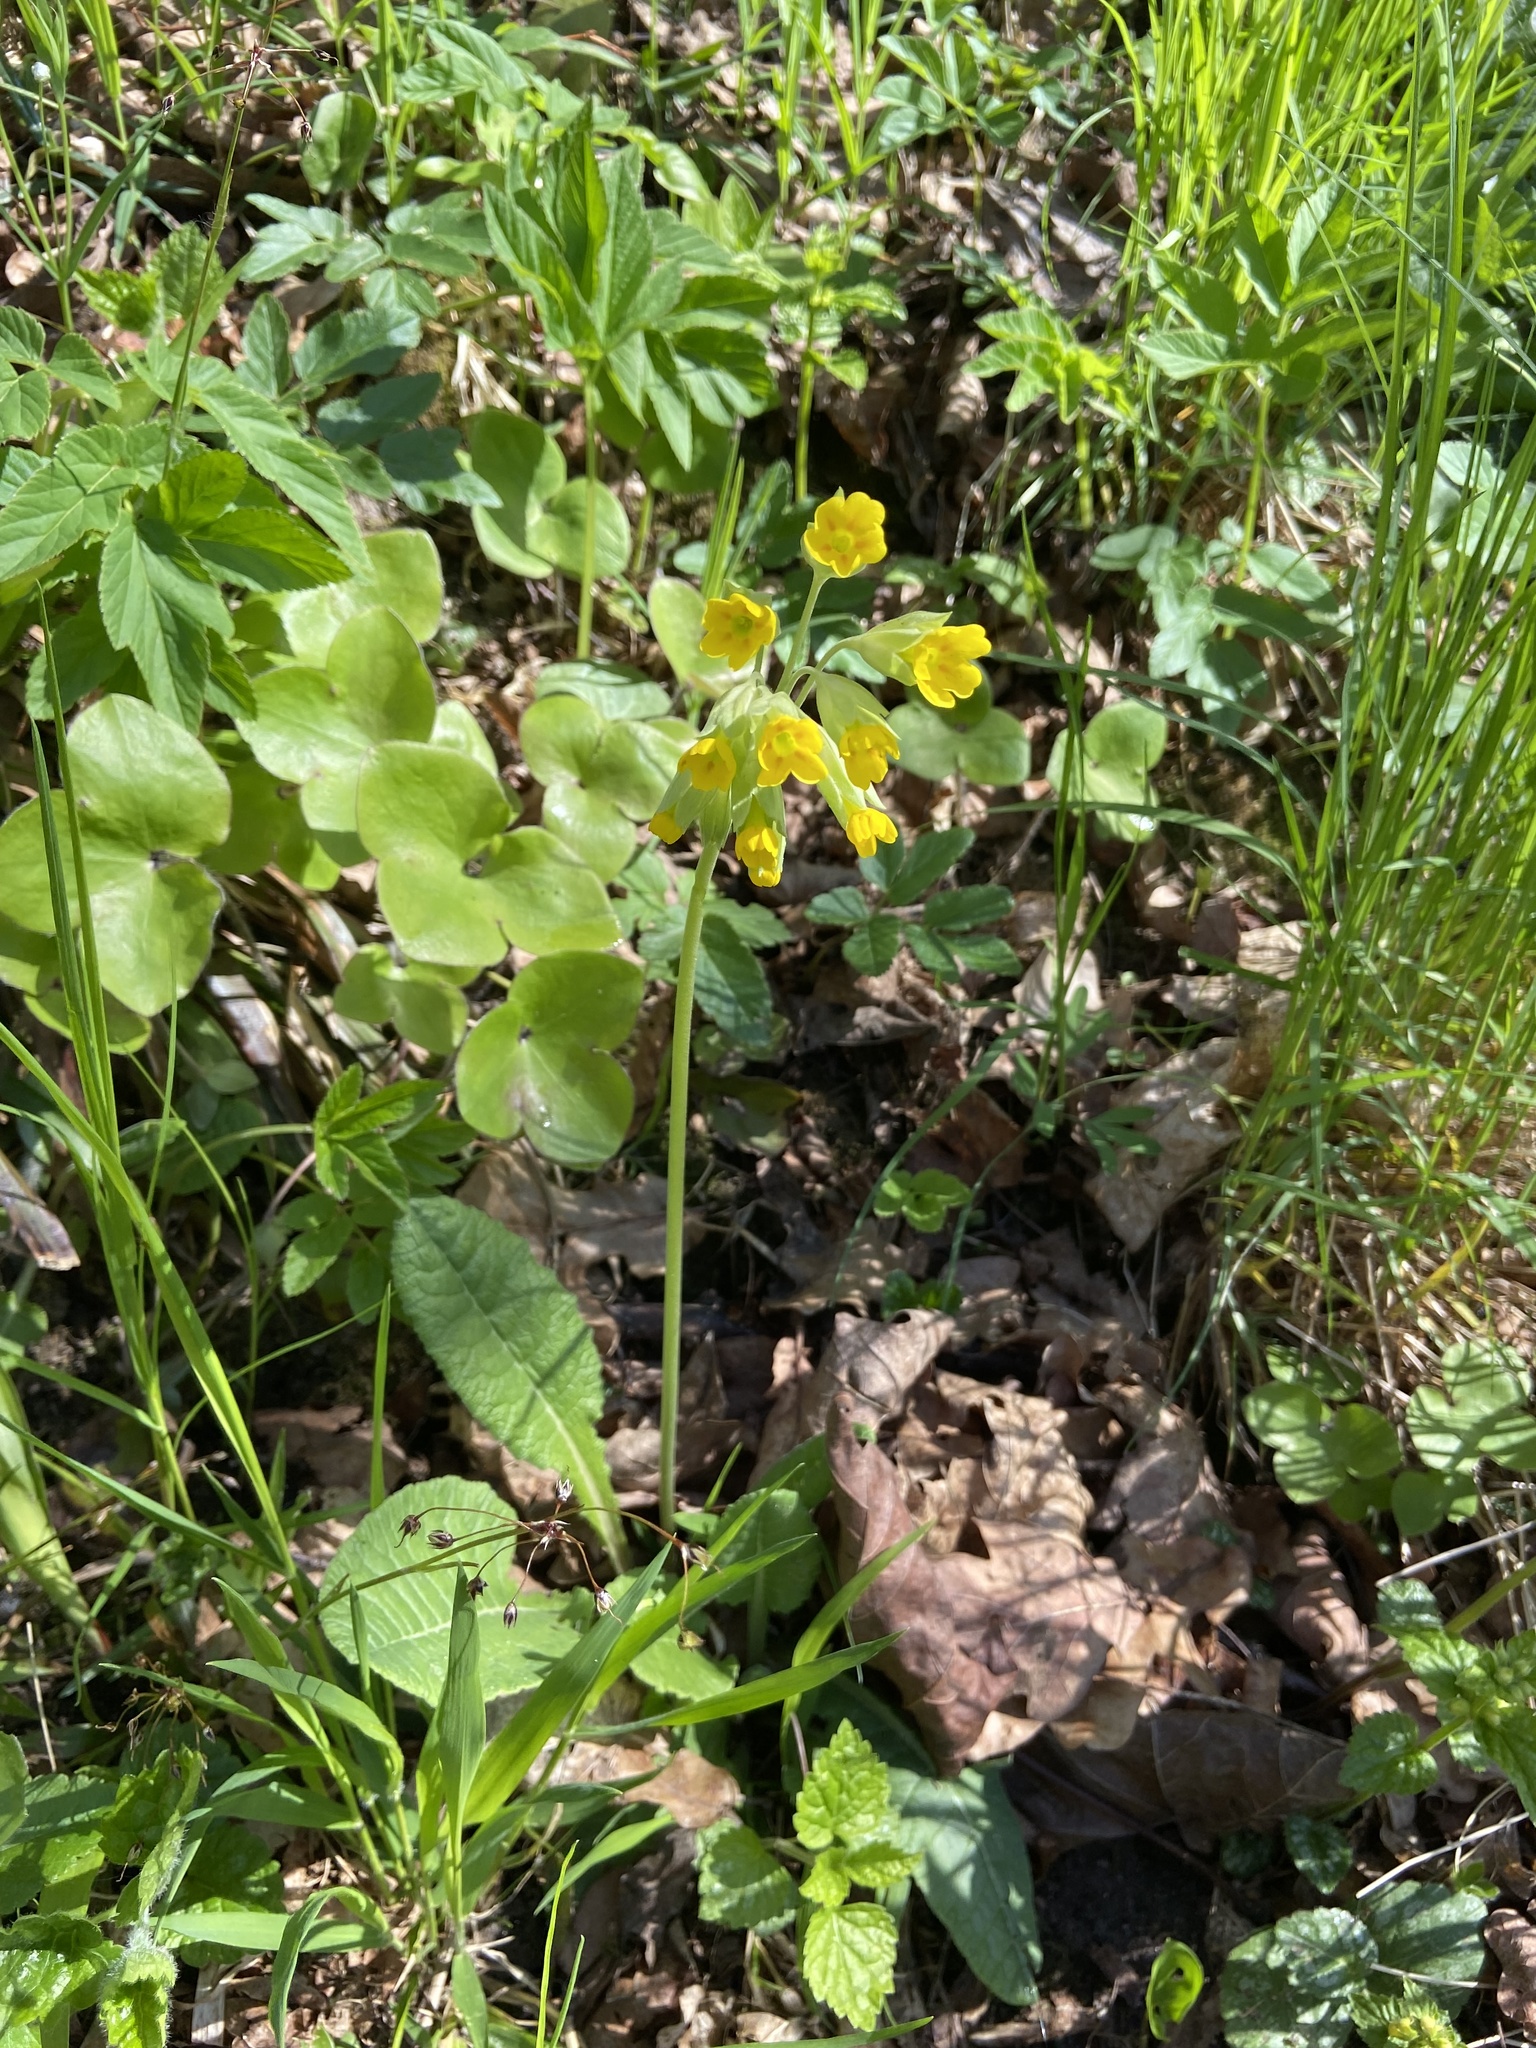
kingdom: Plantae
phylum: Tracheophyta
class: Magnoliopsida
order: Ericales
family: Primulaceae
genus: Primula
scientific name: Primula veris
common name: Cowslip
